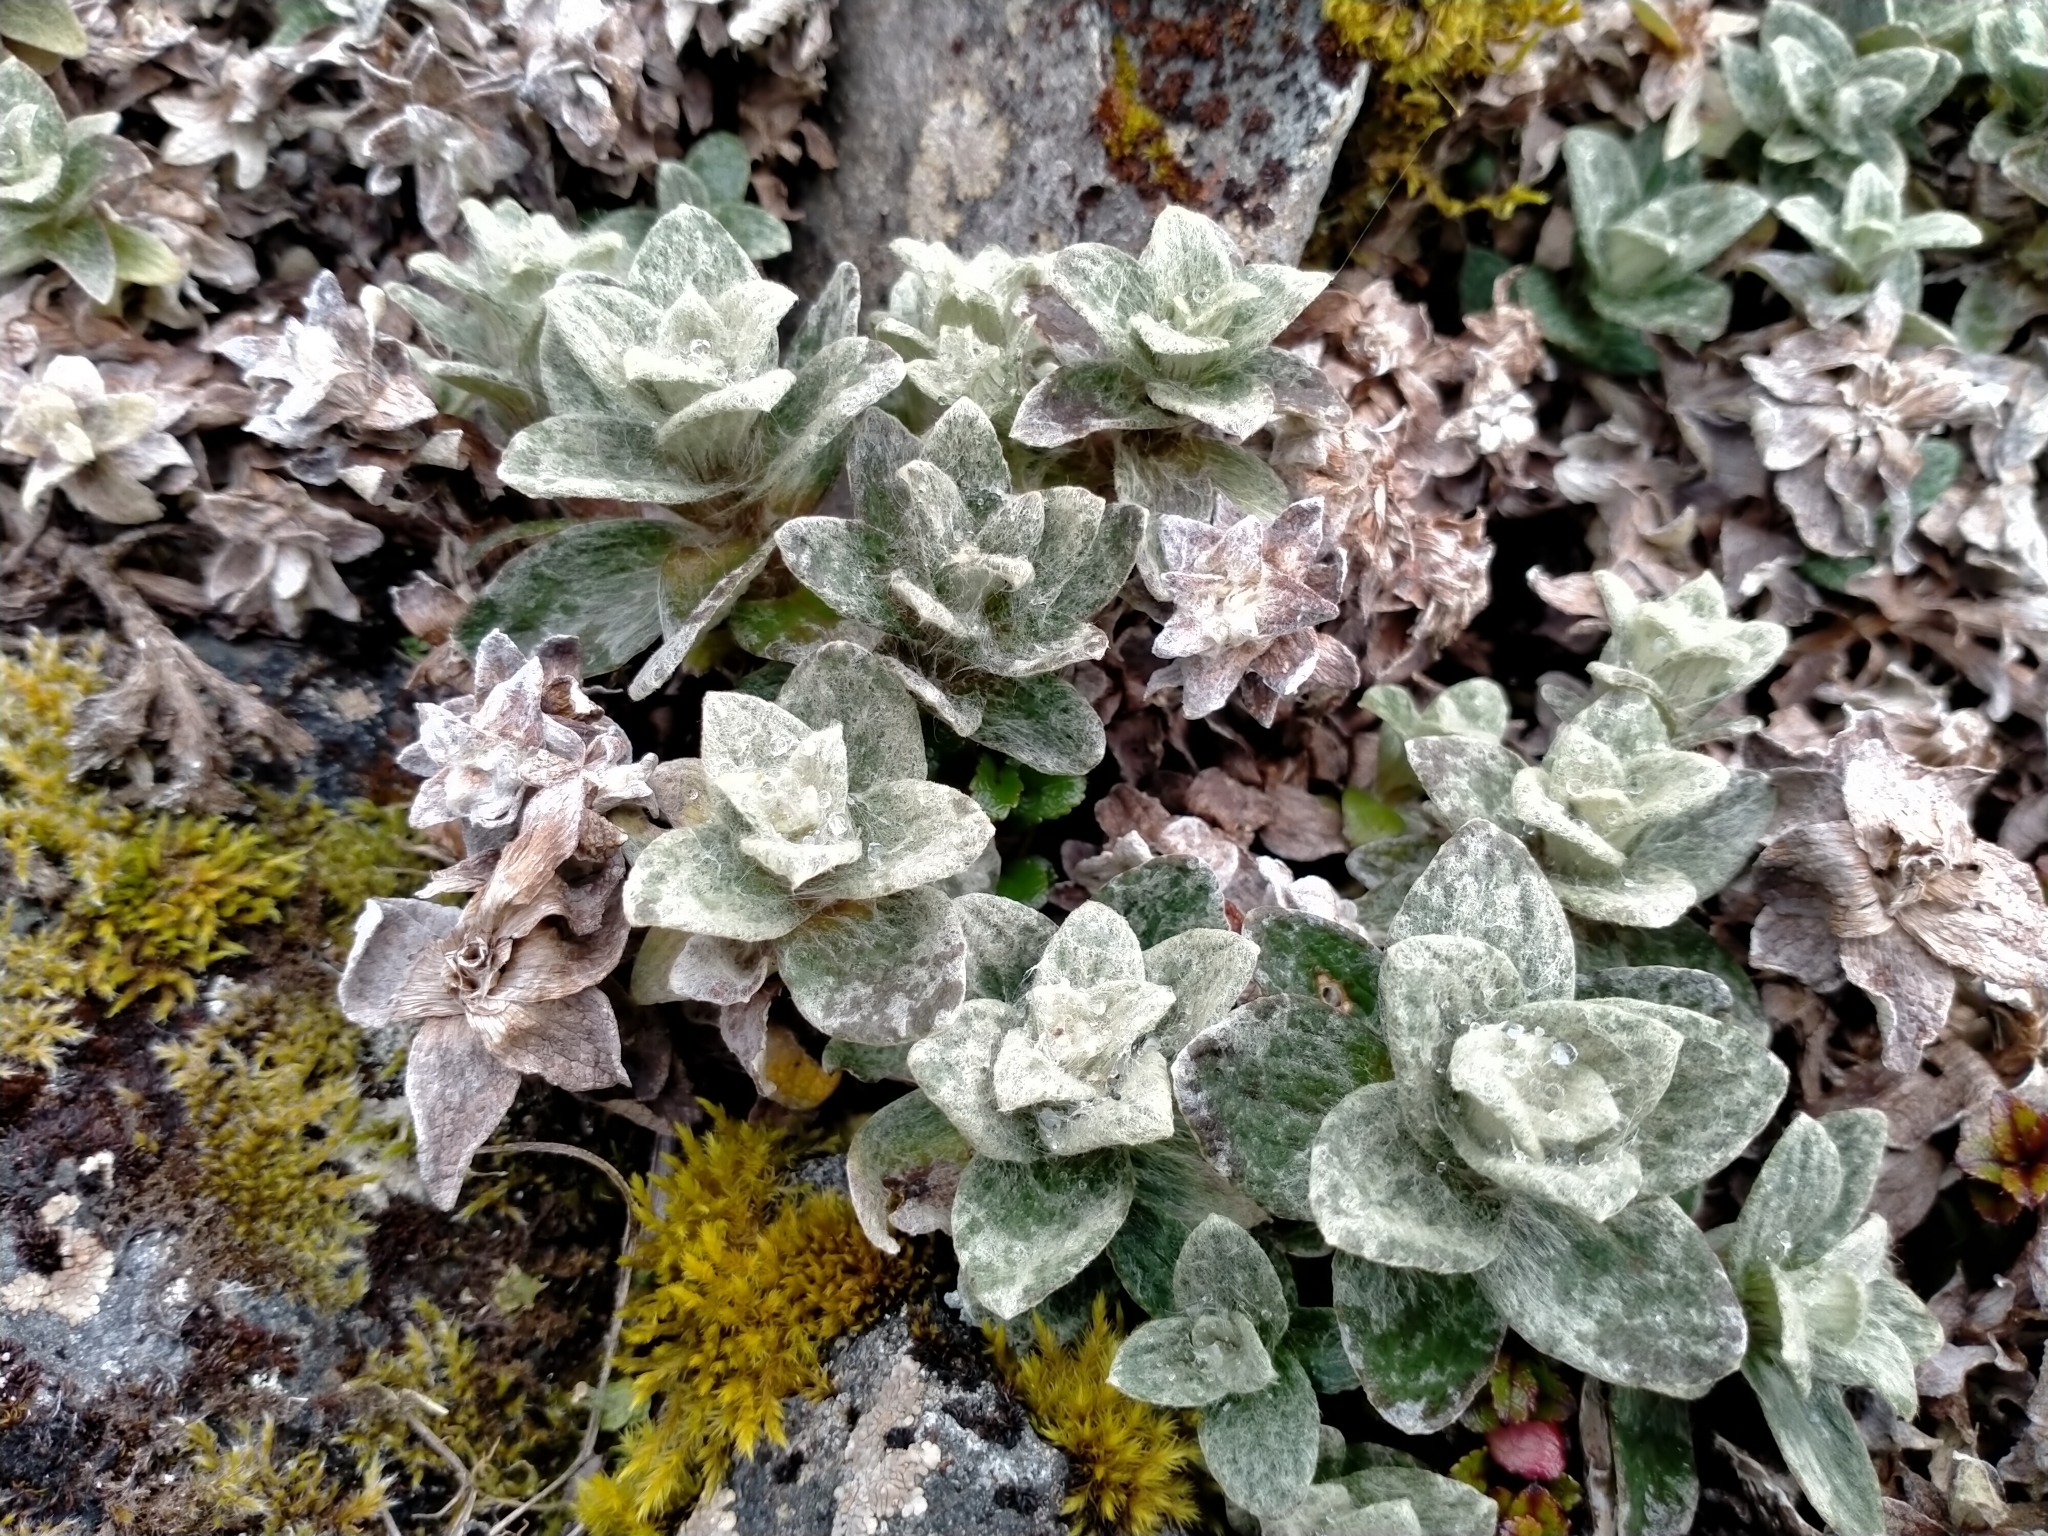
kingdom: Plantae
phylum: Tracheophyta
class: Magnoliopsida
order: Asterales
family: Asteraceae
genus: Haastia
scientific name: Haastia sinclairii
